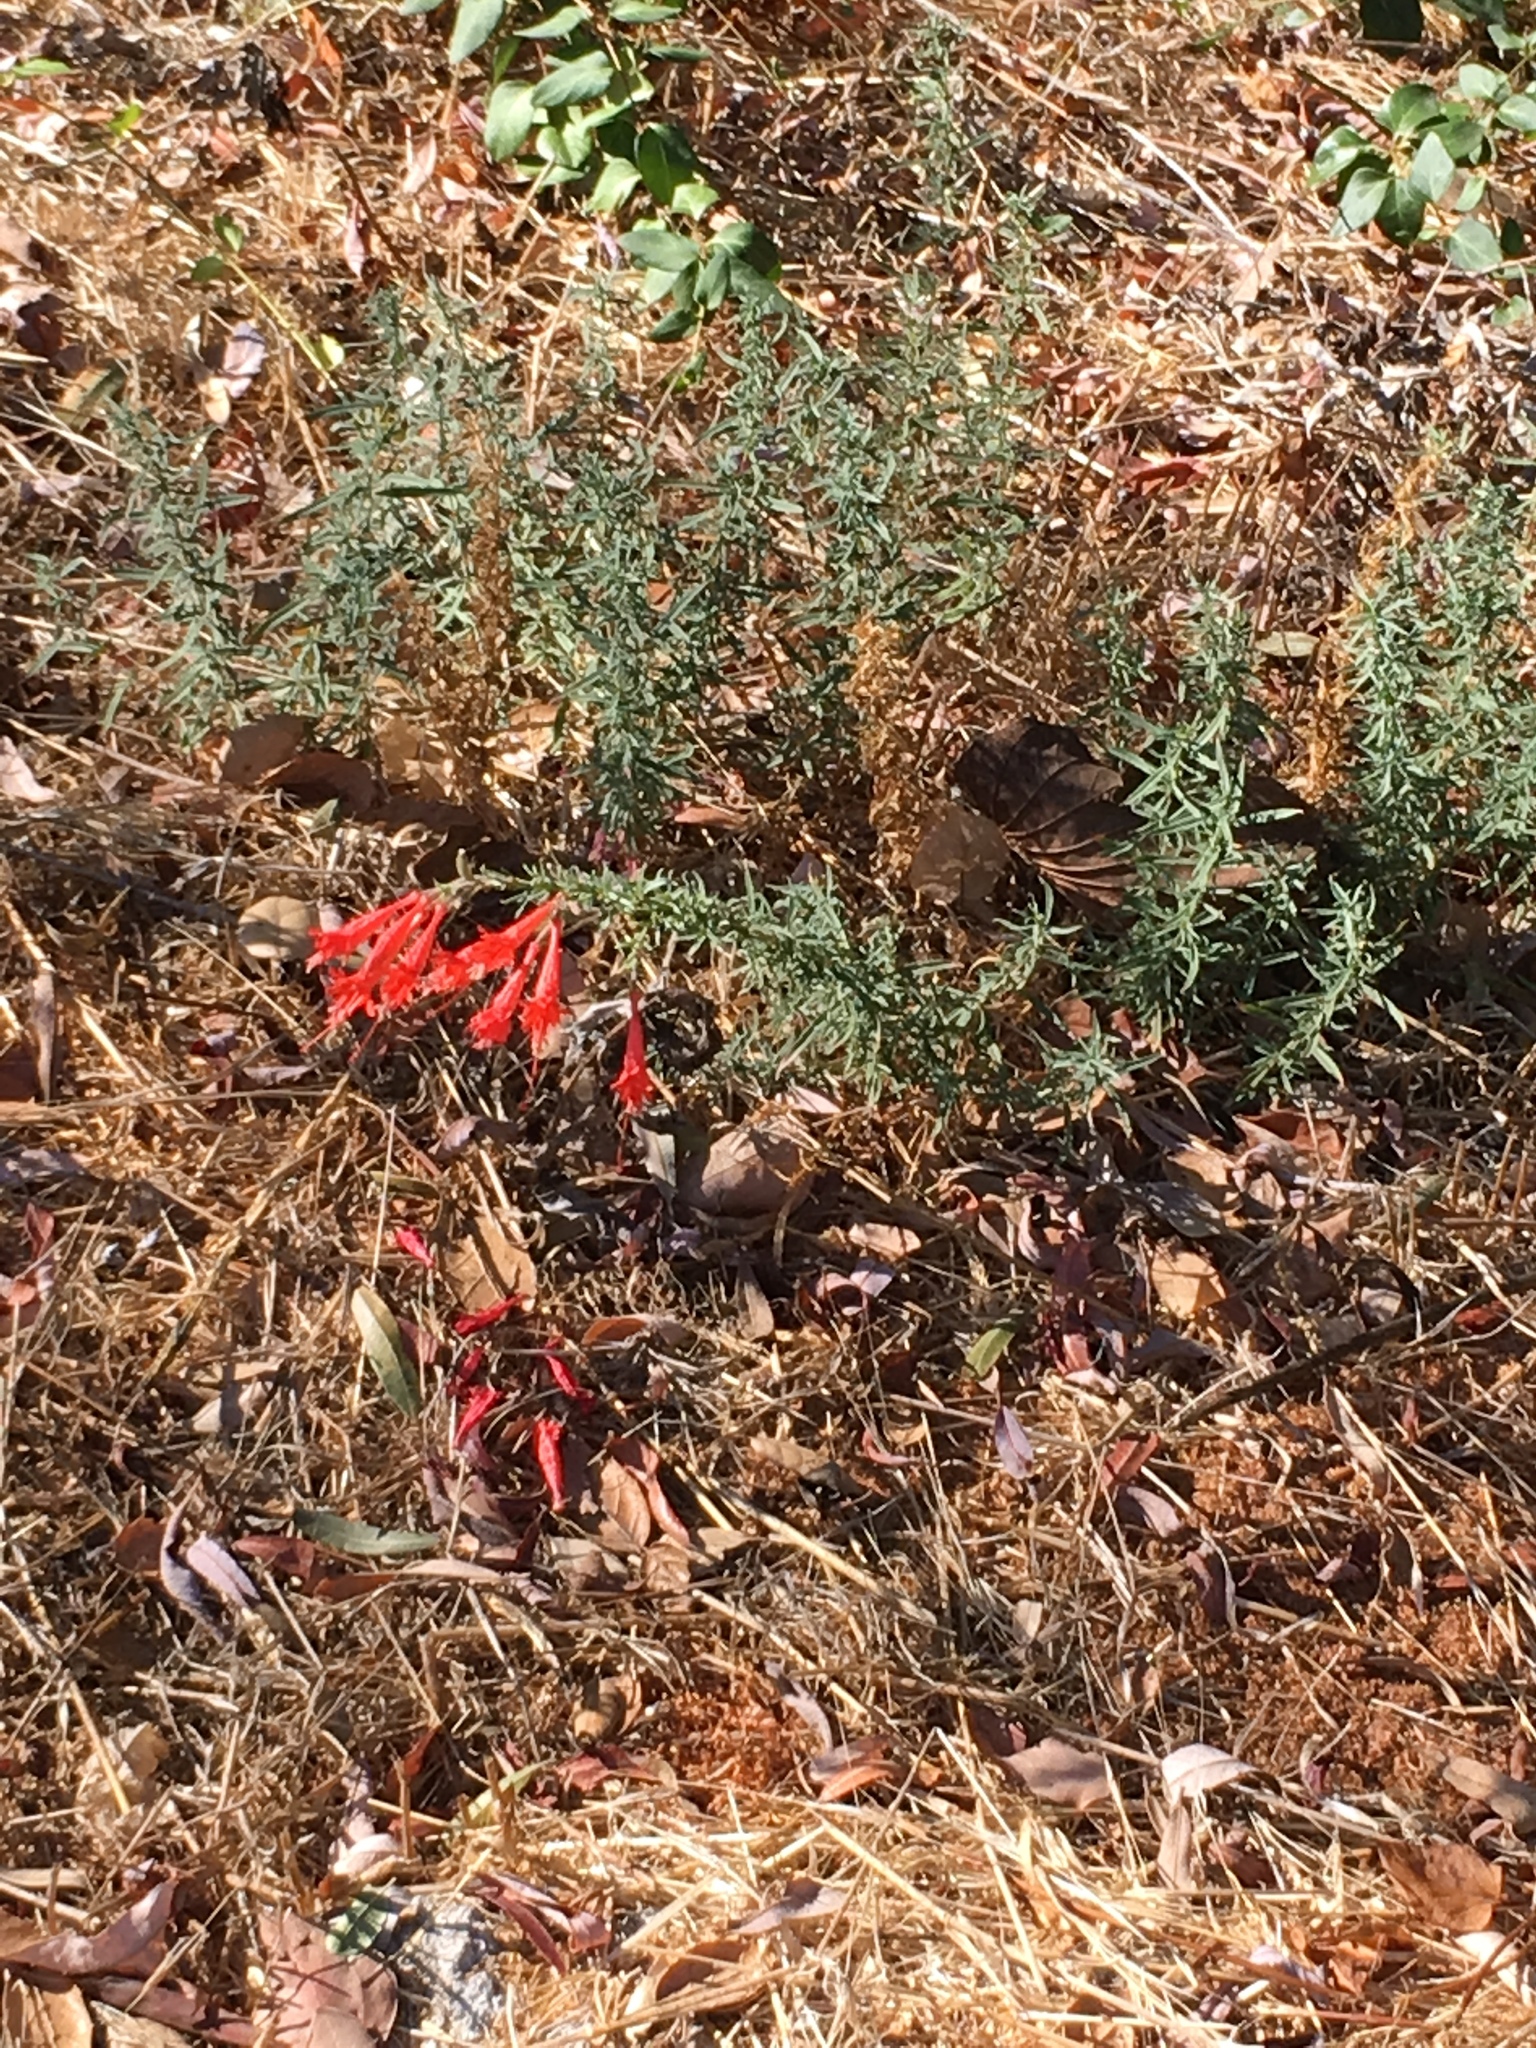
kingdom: Plantae
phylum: Tracheophyta
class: Magnoliopsida
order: Myrtales
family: Onagraceae
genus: Epilobium
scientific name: Epilobium canum
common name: California-fuchsia
